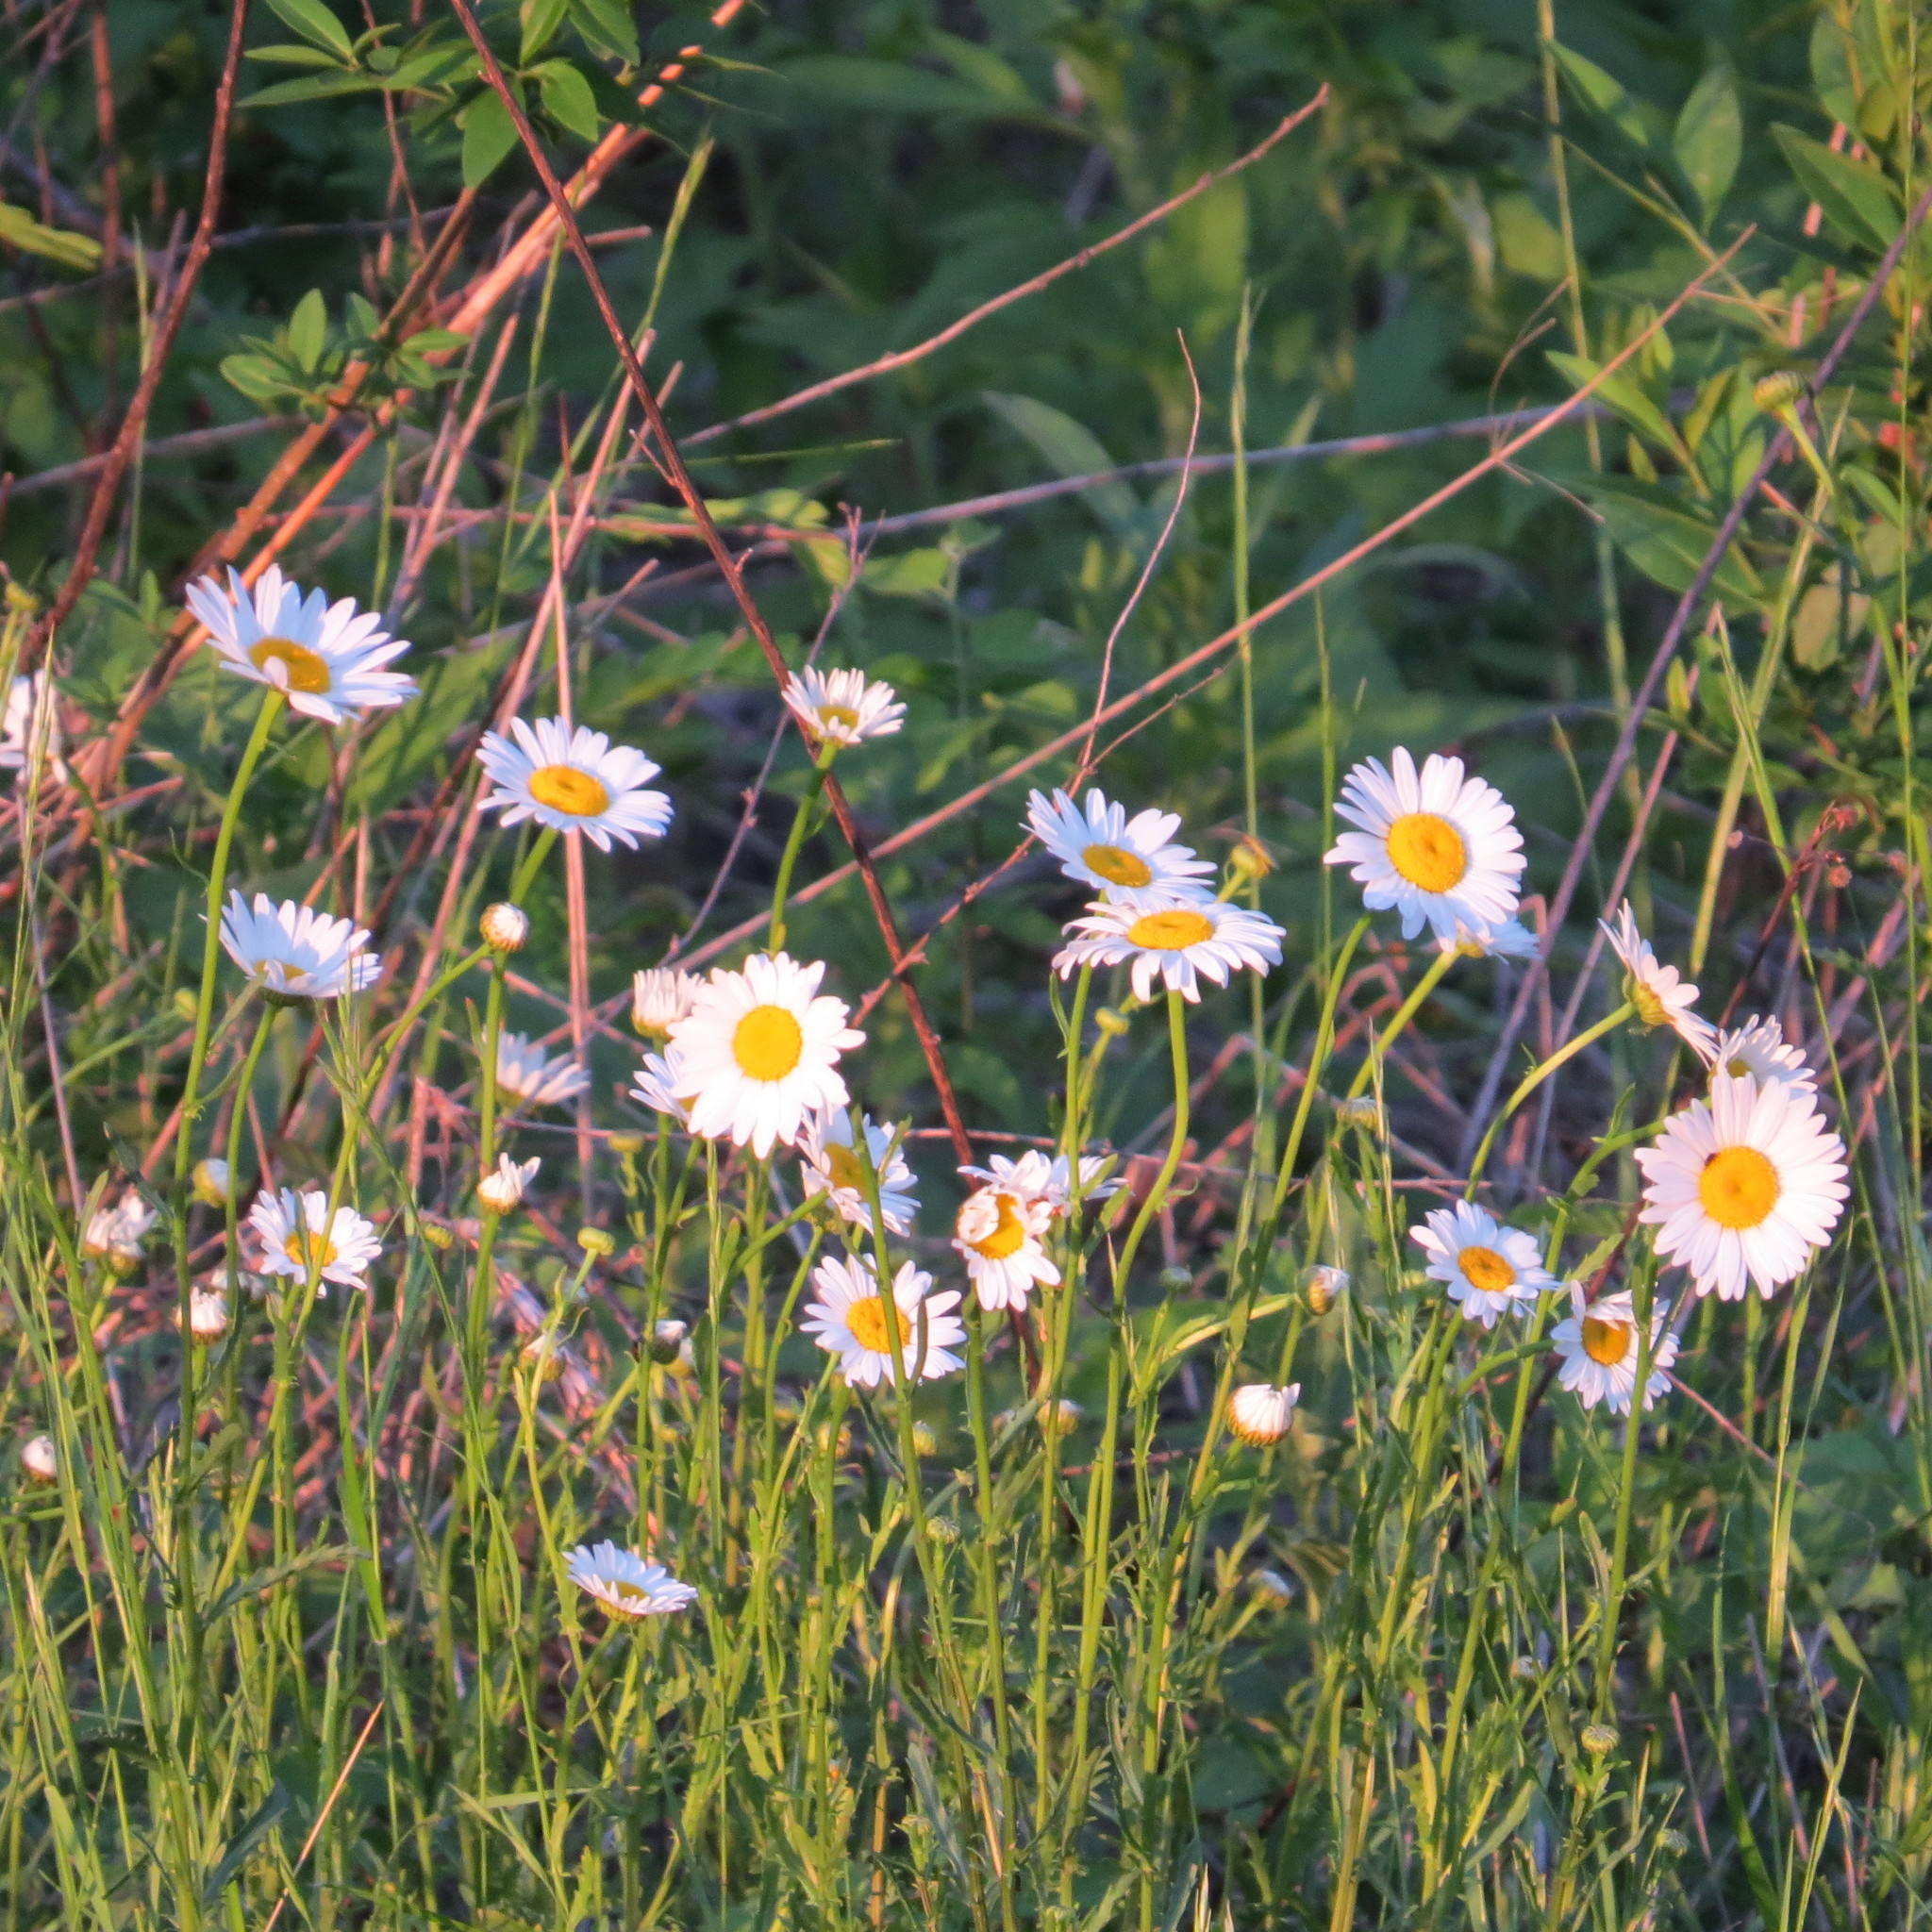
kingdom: Plantae
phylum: Tracheophyta
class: Magnoliopsida
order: Asterales
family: Asteraceae
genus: Leucanthemum
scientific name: Leucanthemum vulgare
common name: Oxeye daisy
